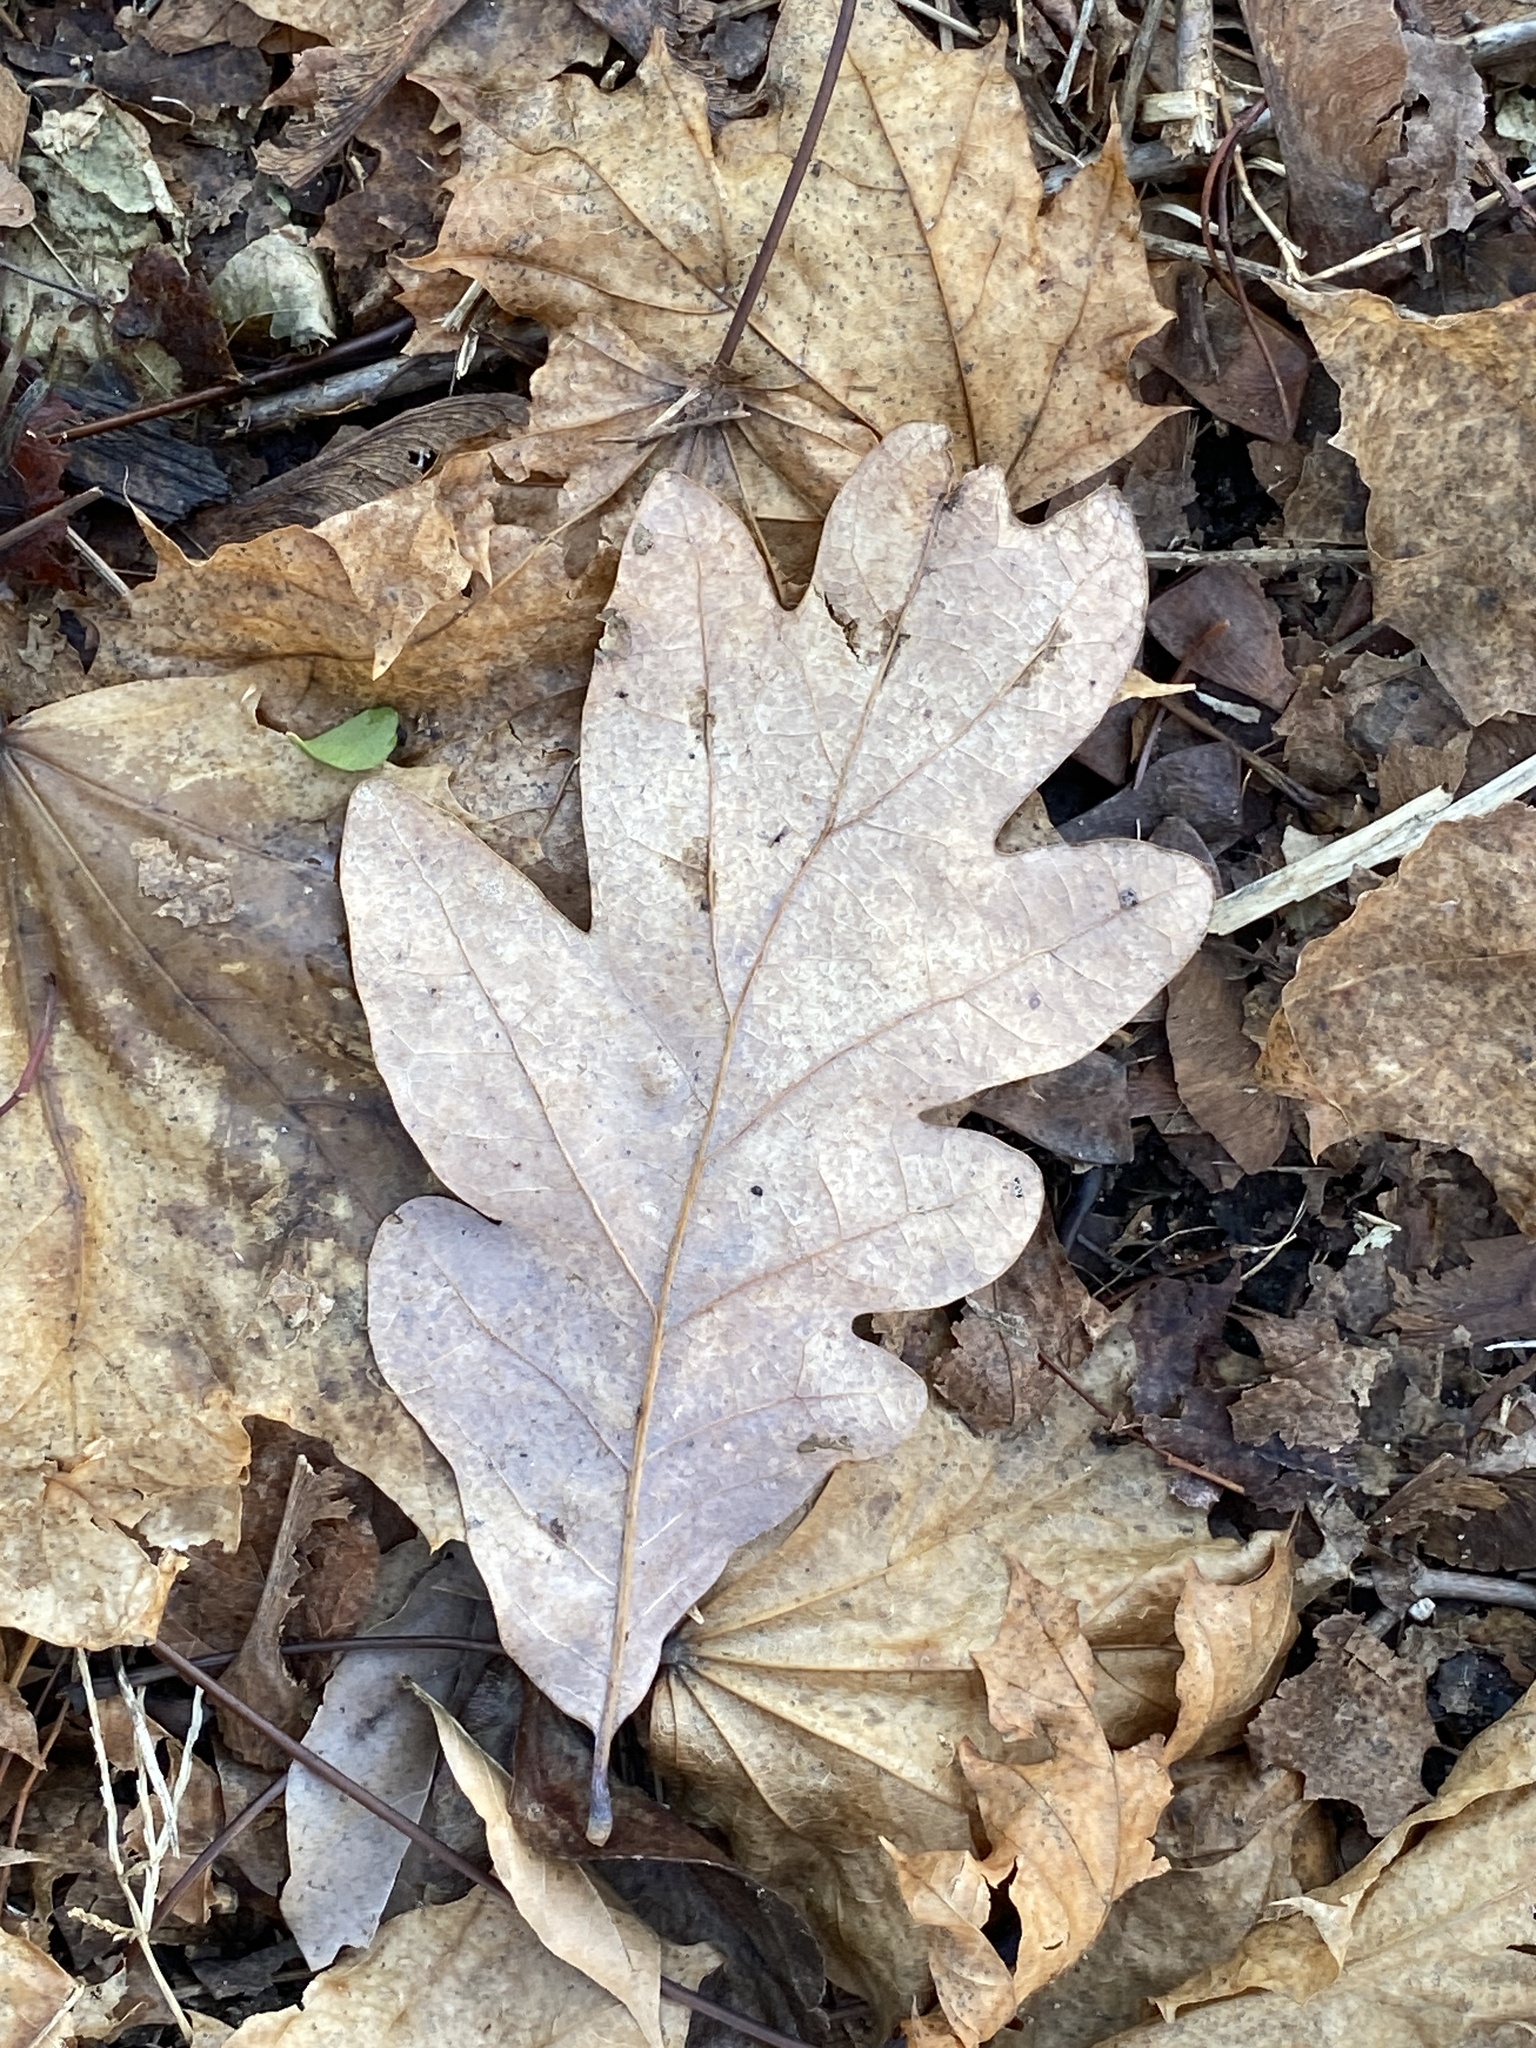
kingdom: Plantae
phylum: Tracheophyta
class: Magnoliopsida
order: Fagales
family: Fagaceae
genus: Quercus
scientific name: Quercus alba
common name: White oak
